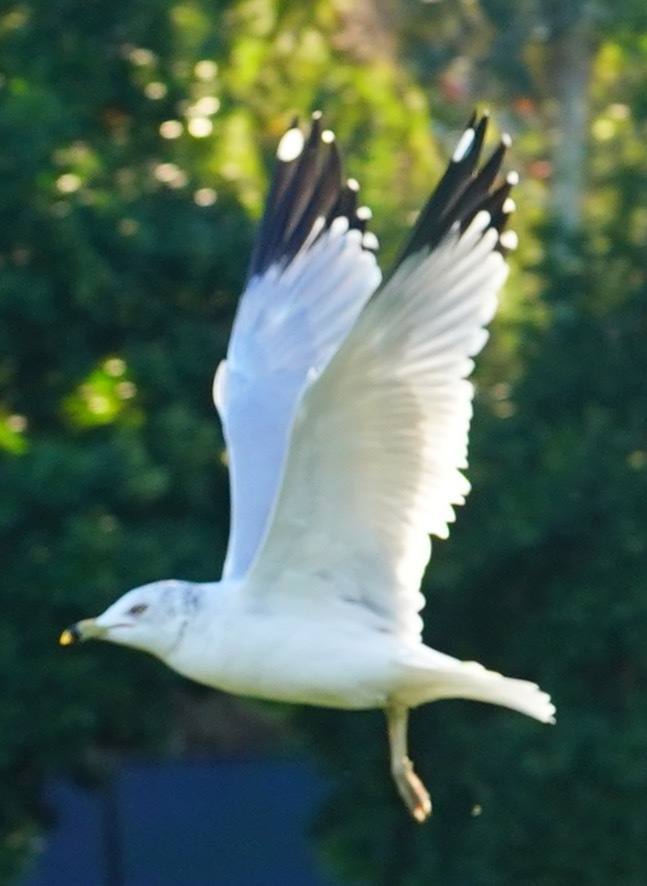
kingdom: Animalia
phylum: Chordata
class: Aves
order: Charadriiformes
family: Laridae
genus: Larus
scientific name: Larus delawarensis
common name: Ring-billed gull
